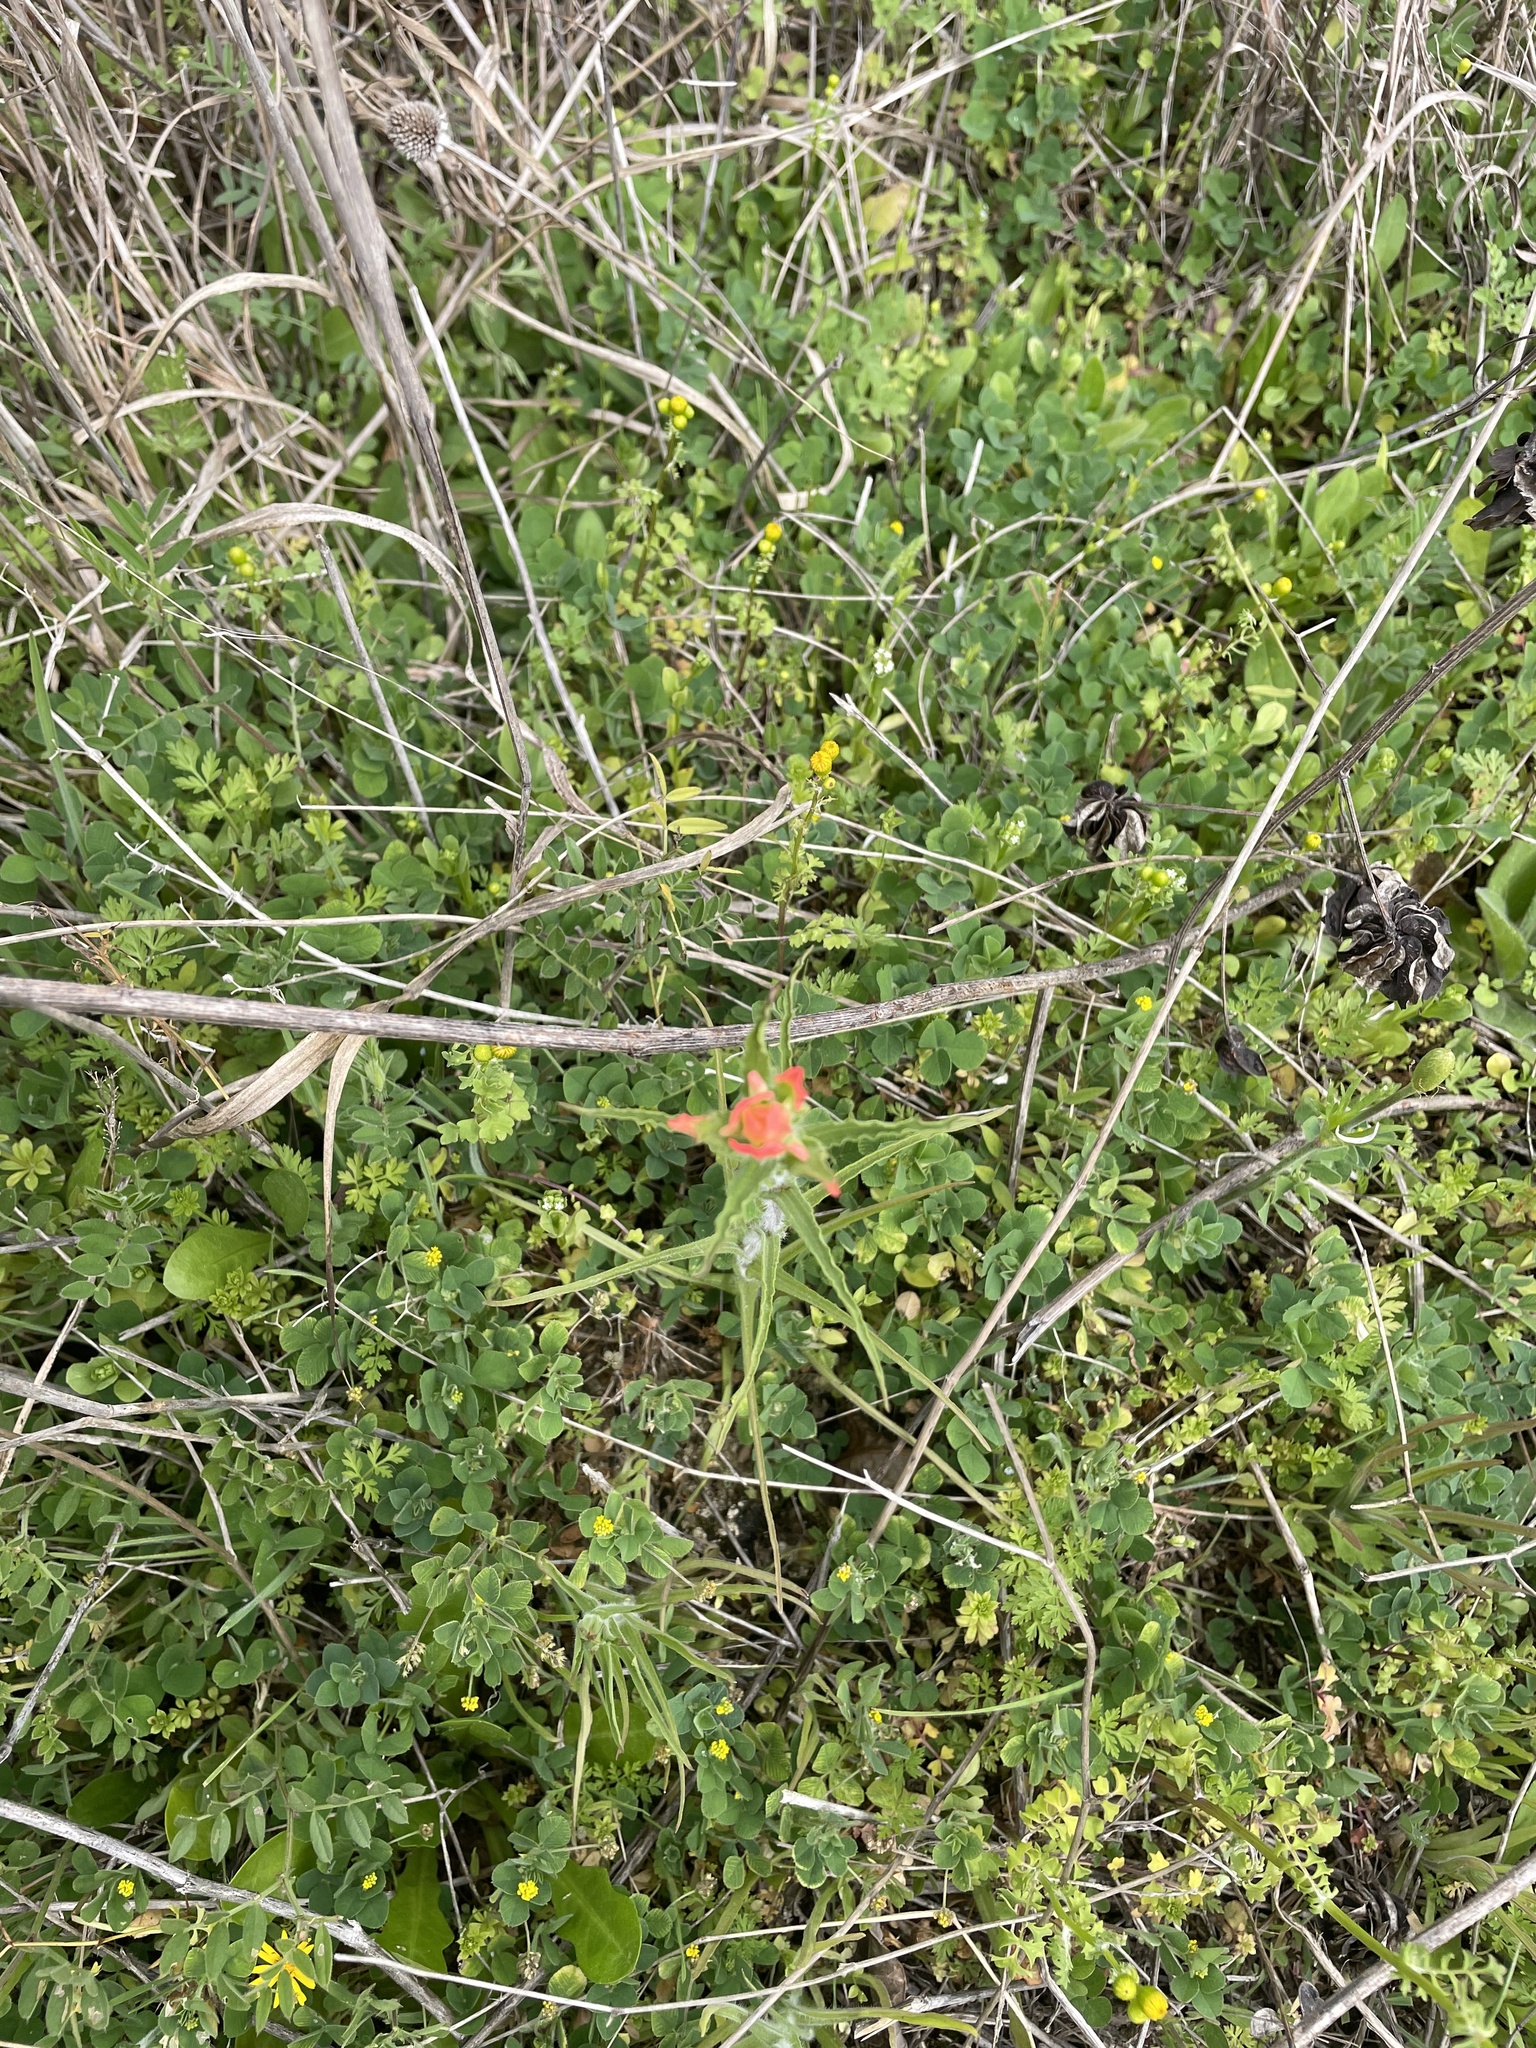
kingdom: Plantae
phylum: Tracheophyta
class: Magnoliopsida
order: Lamiales
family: Orobanchaceae
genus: Castilleja
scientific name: Castilleja indivisa
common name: Texas paintbrush
